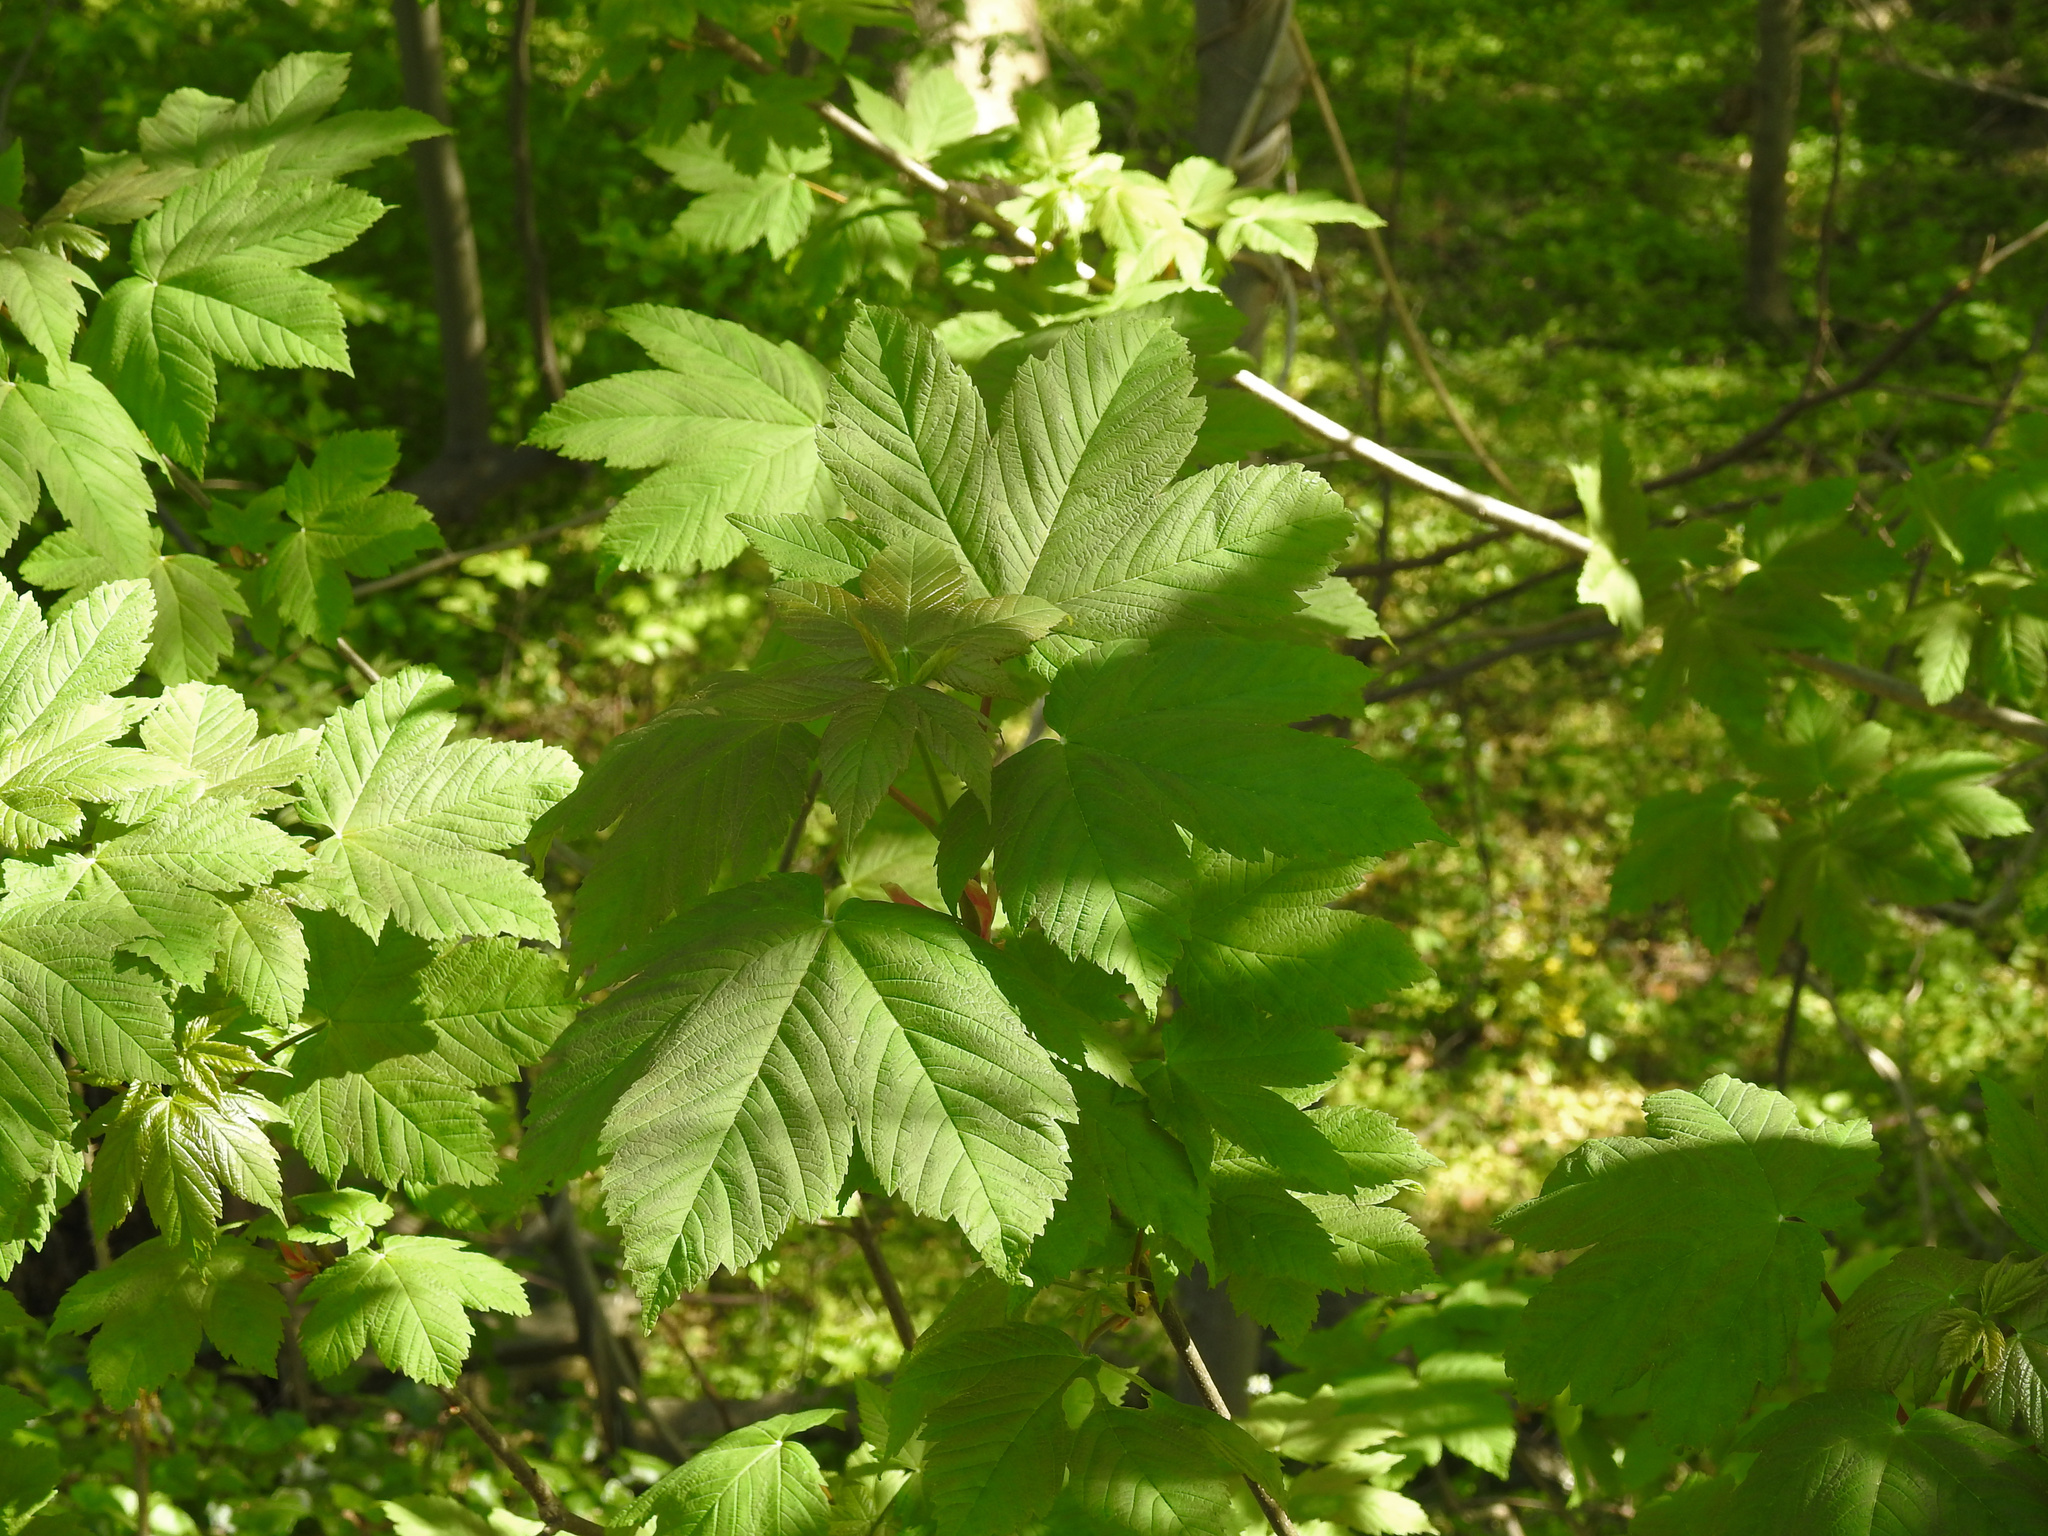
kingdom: Plantae
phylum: Tracheophyta
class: Magnoliopsida
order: Sapindales
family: Sapindaceae
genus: Acer
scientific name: Acer pseudoplatanus
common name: Sycamore
